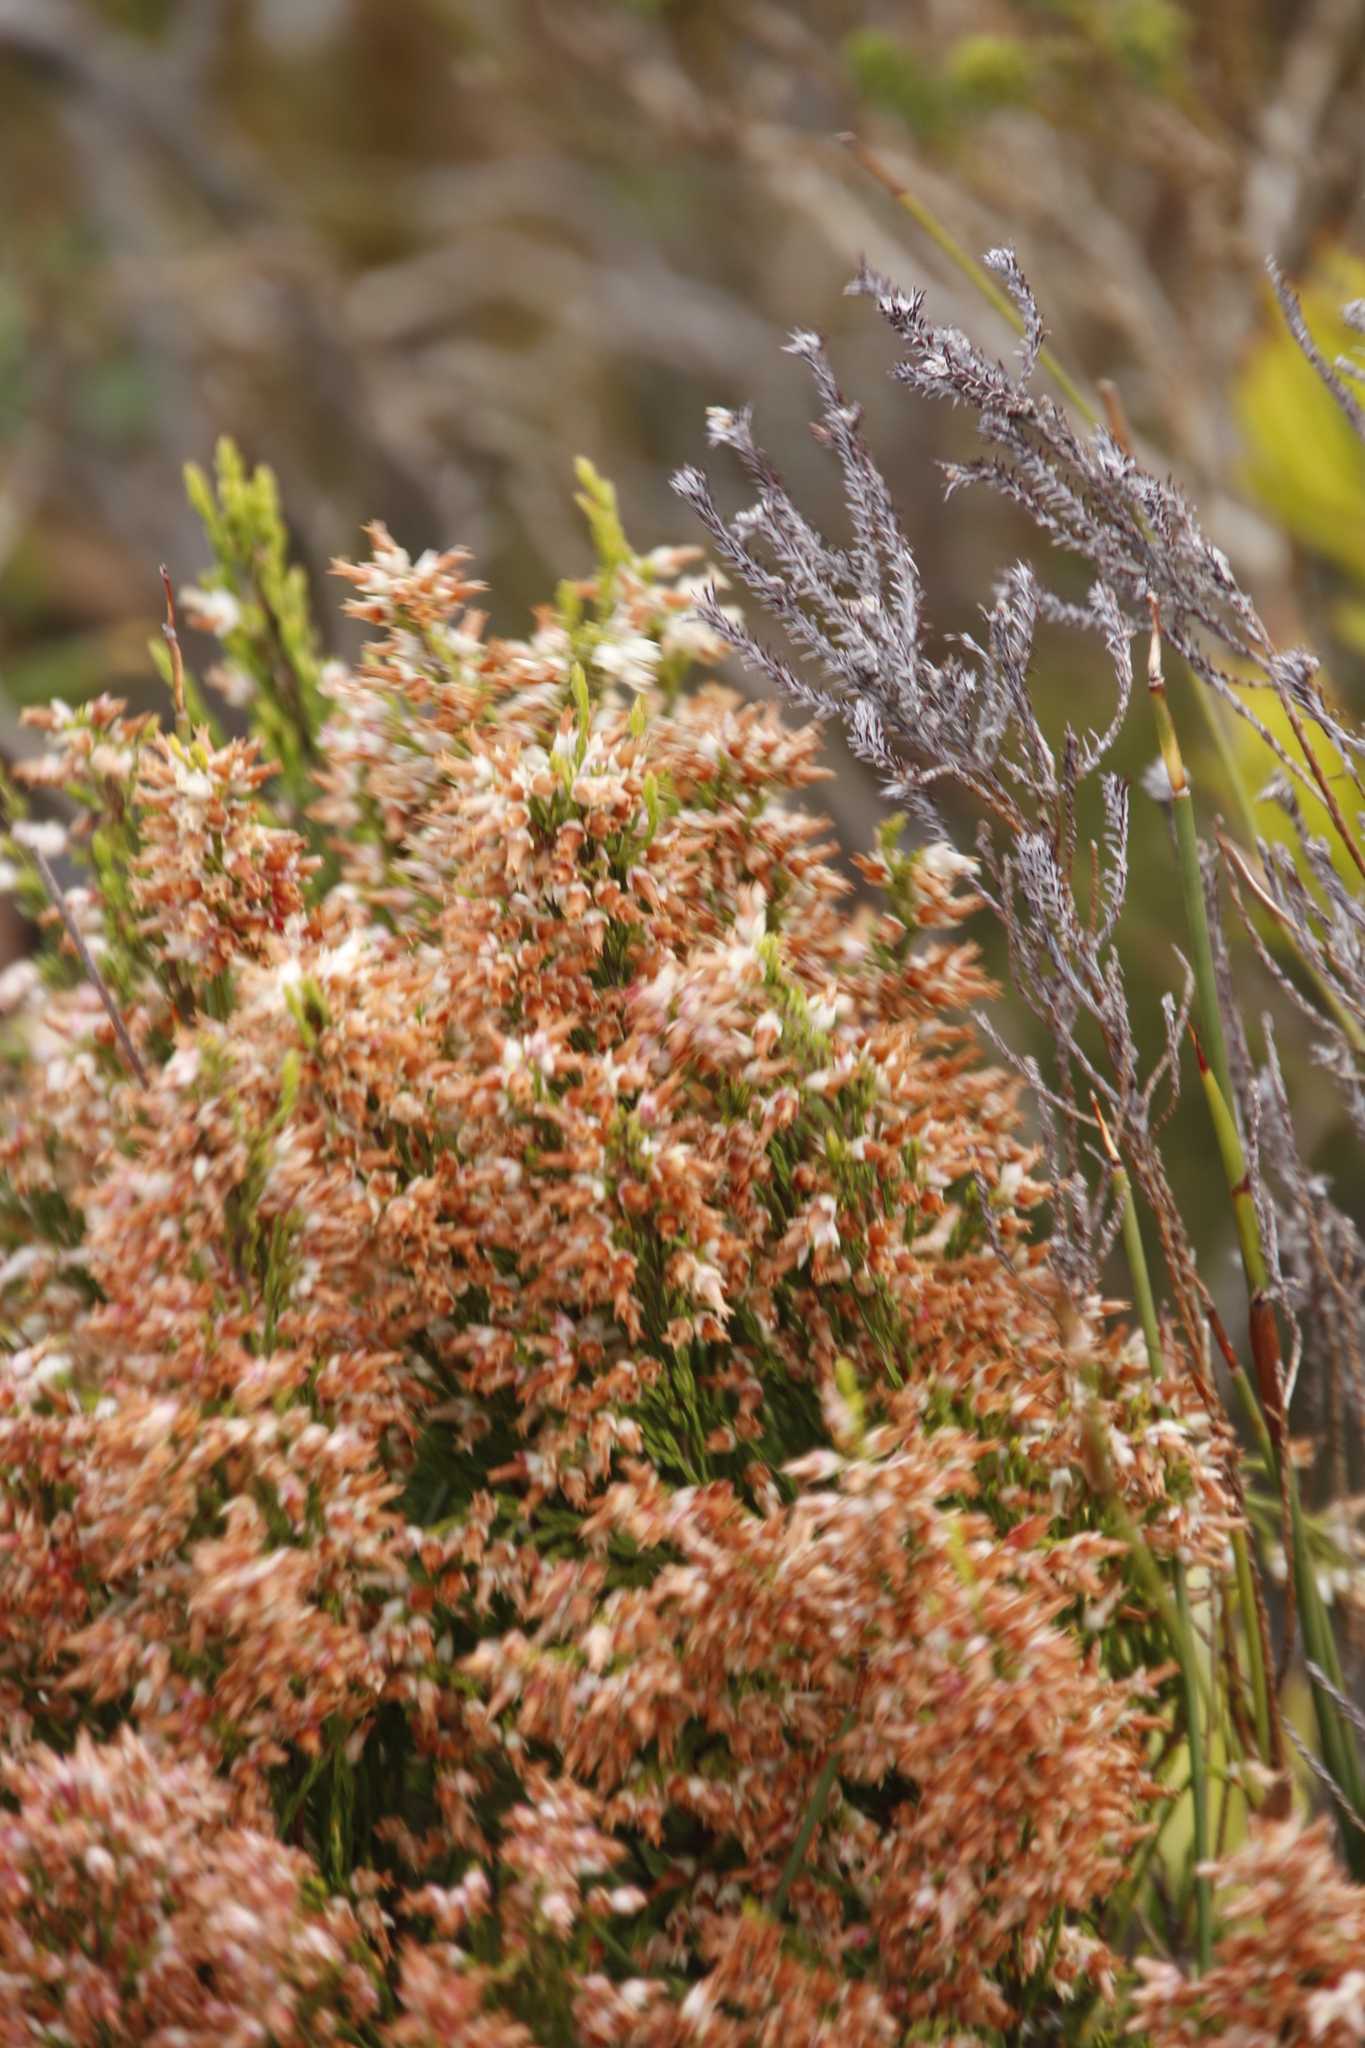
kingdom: Plantae
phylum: Tracheophyta
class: Magnoliopsida
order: Ericales
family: Ericaceae
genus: Erica
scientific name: Erica lutea
